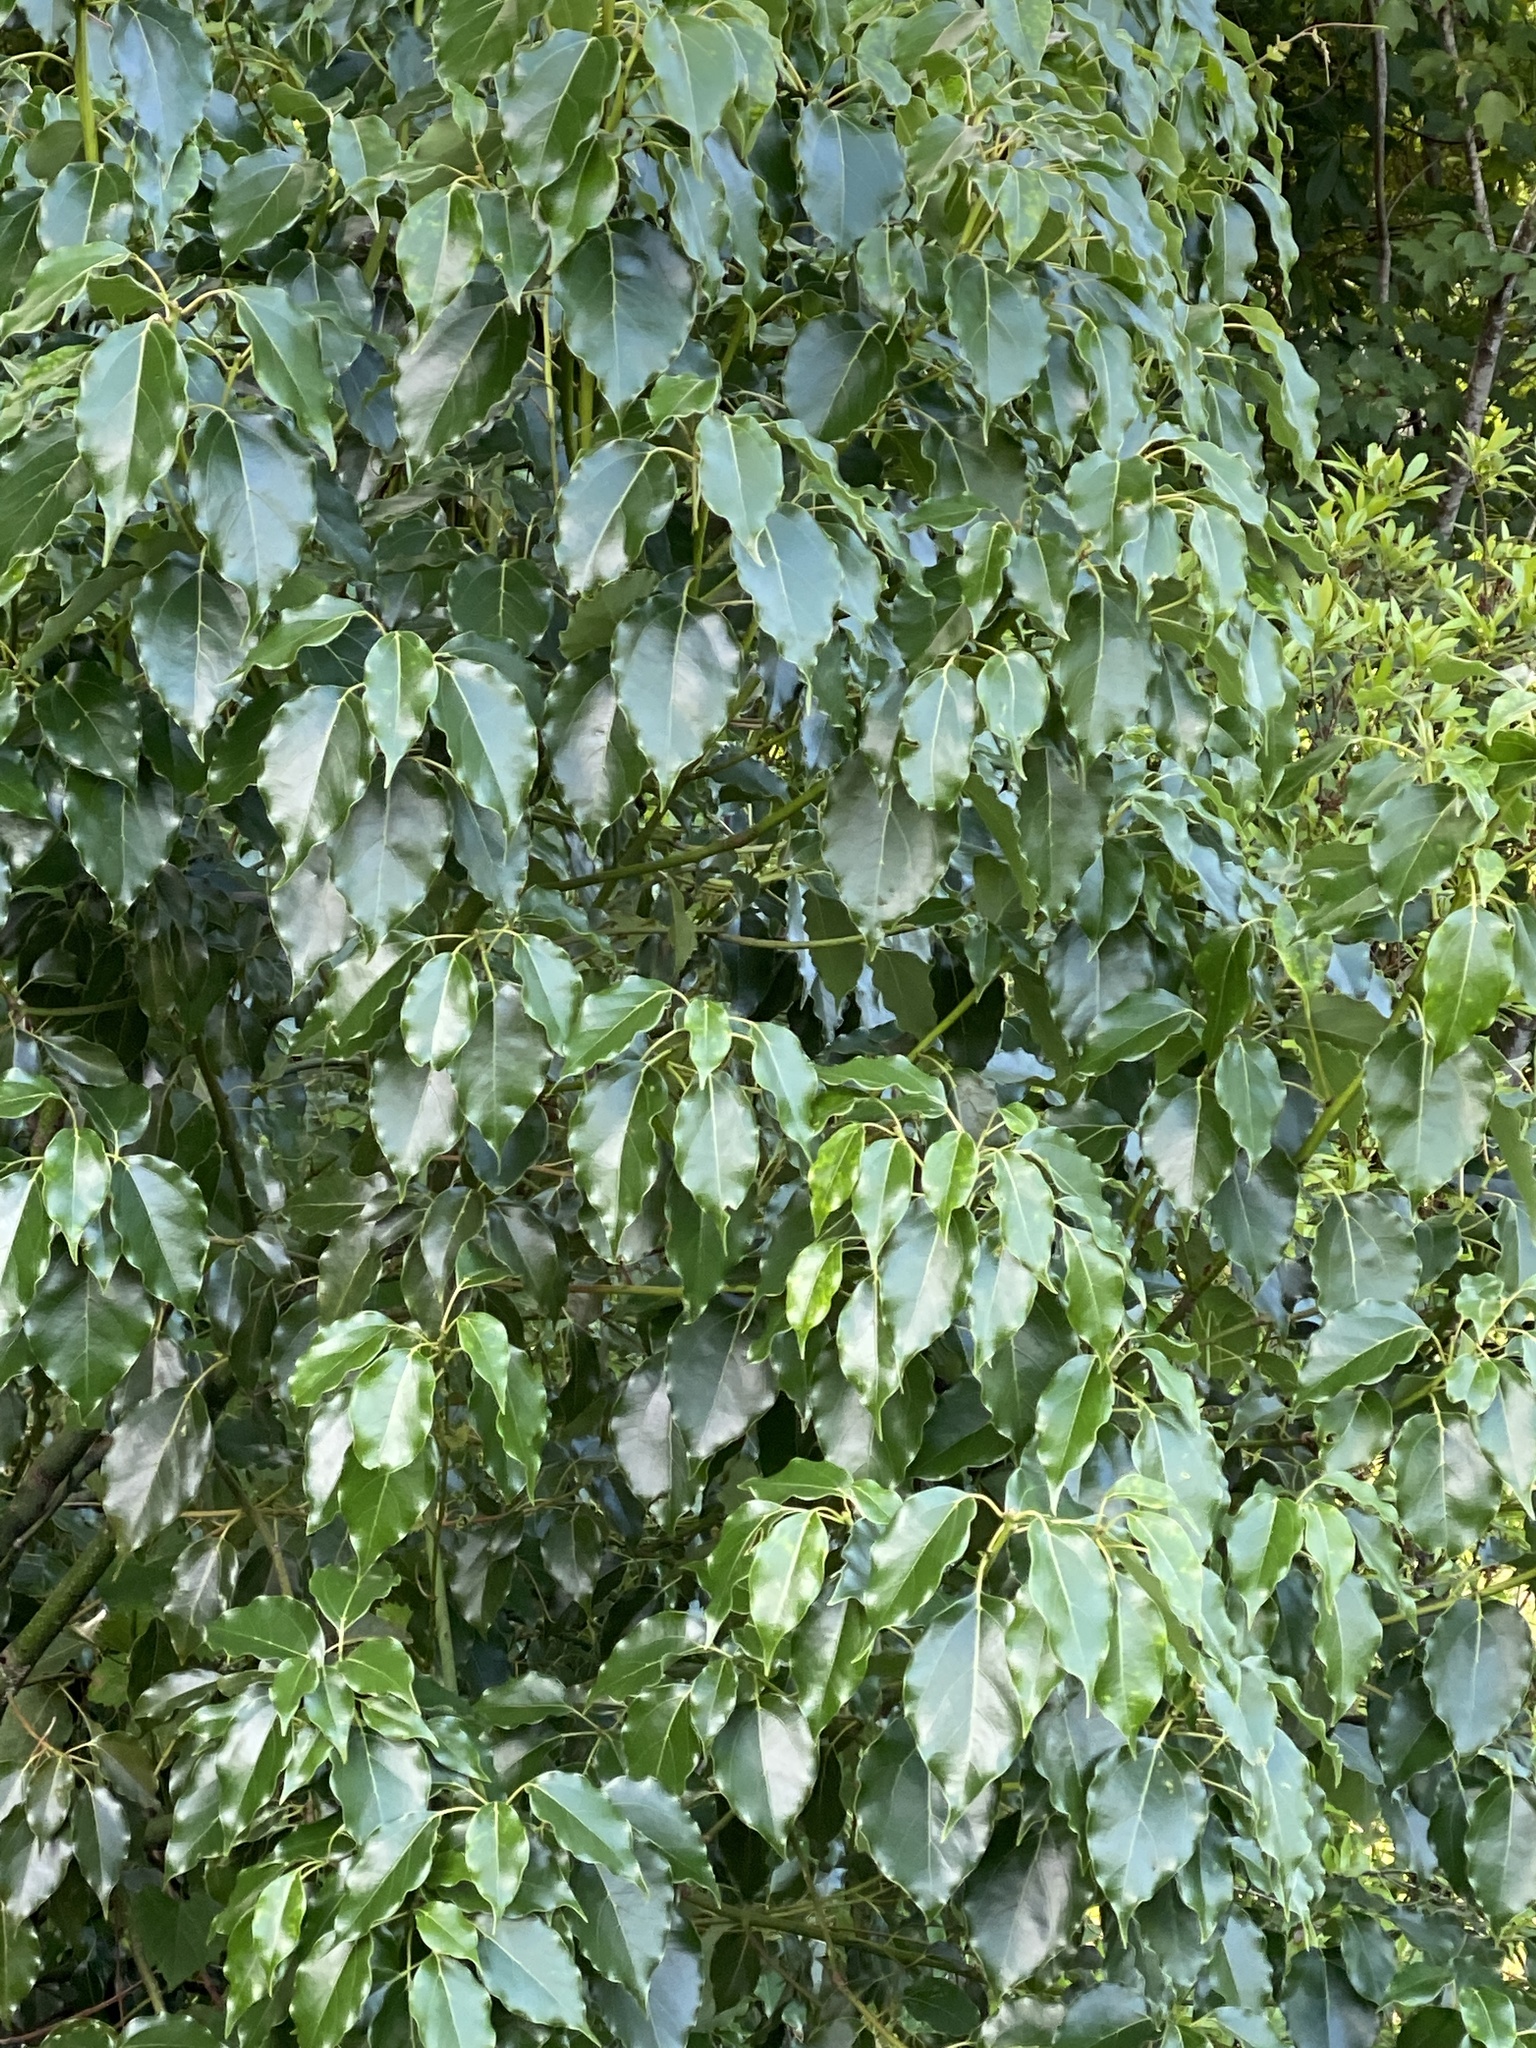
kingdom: Plantae
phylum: Tracheophyta
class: Magnoliopsida
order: Laurales
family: Lauraceae
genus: Cinnamomum
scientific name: Cinnamomum camphora
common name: Camphortree
